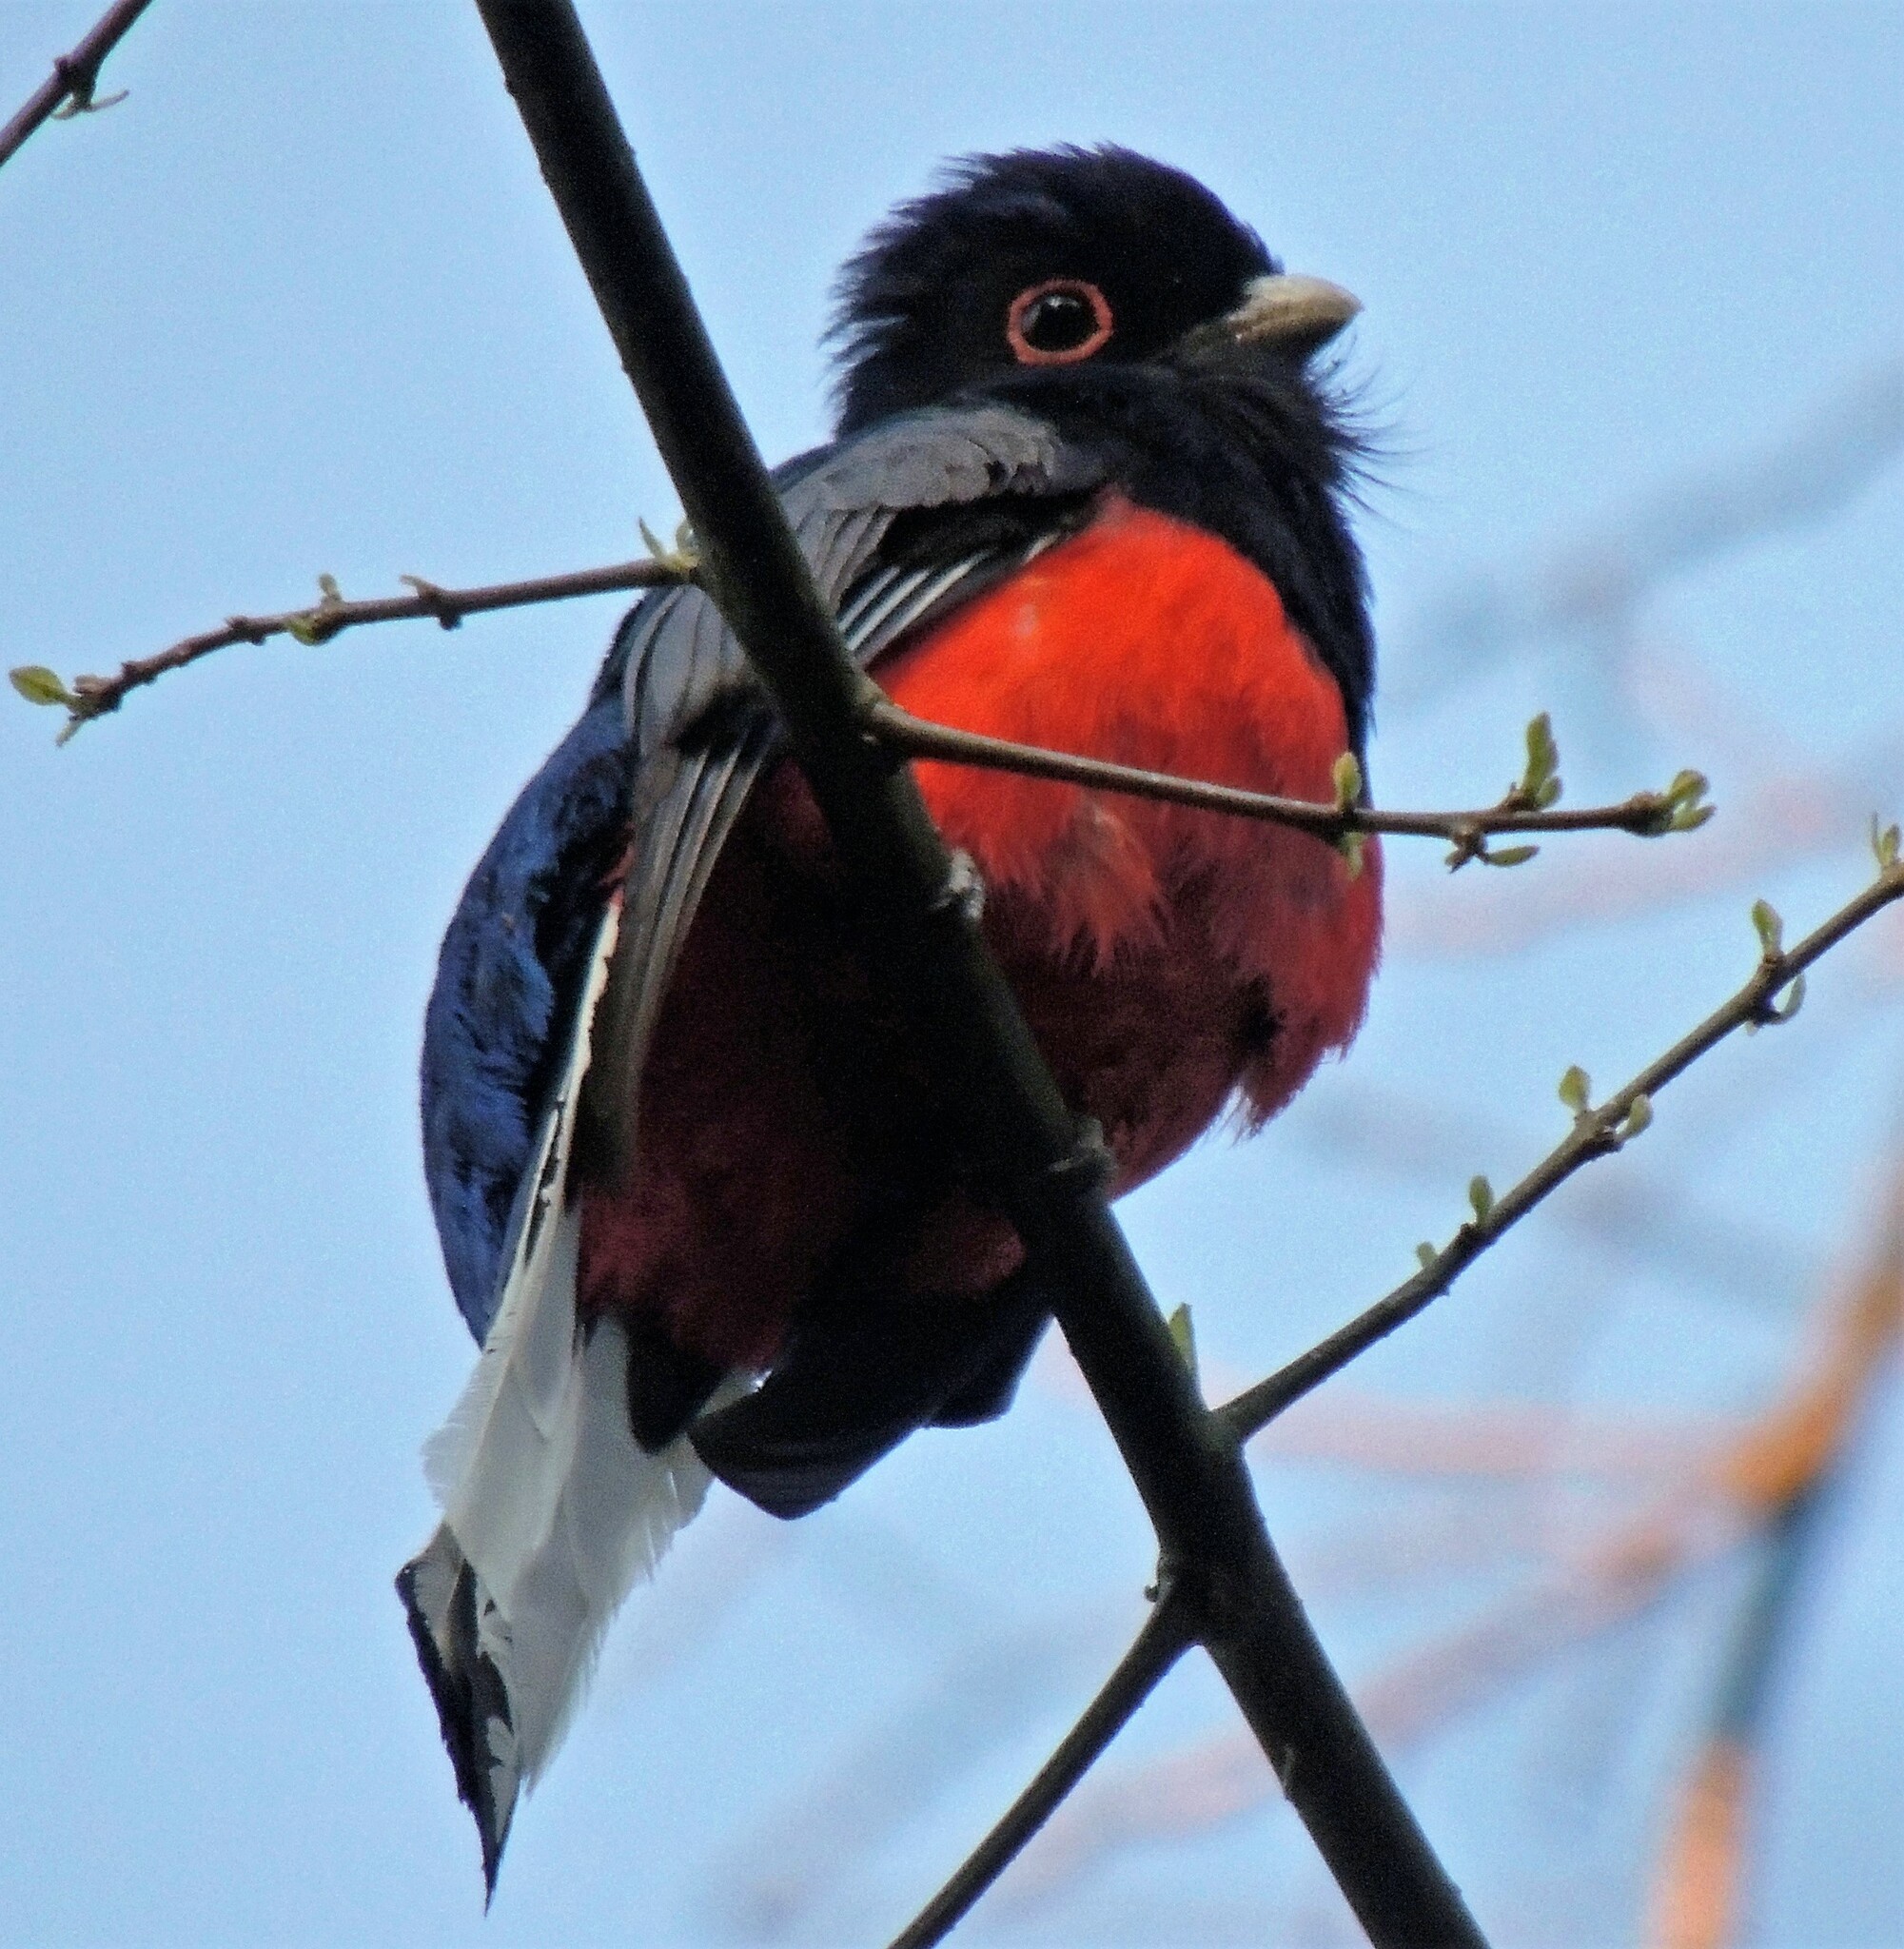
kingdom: Animalia
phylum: Chordata
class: Aves
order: Trogoniformes
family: Trogonidae
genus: Trogon
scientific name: Trogon surrucura
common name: Surucua trogon
